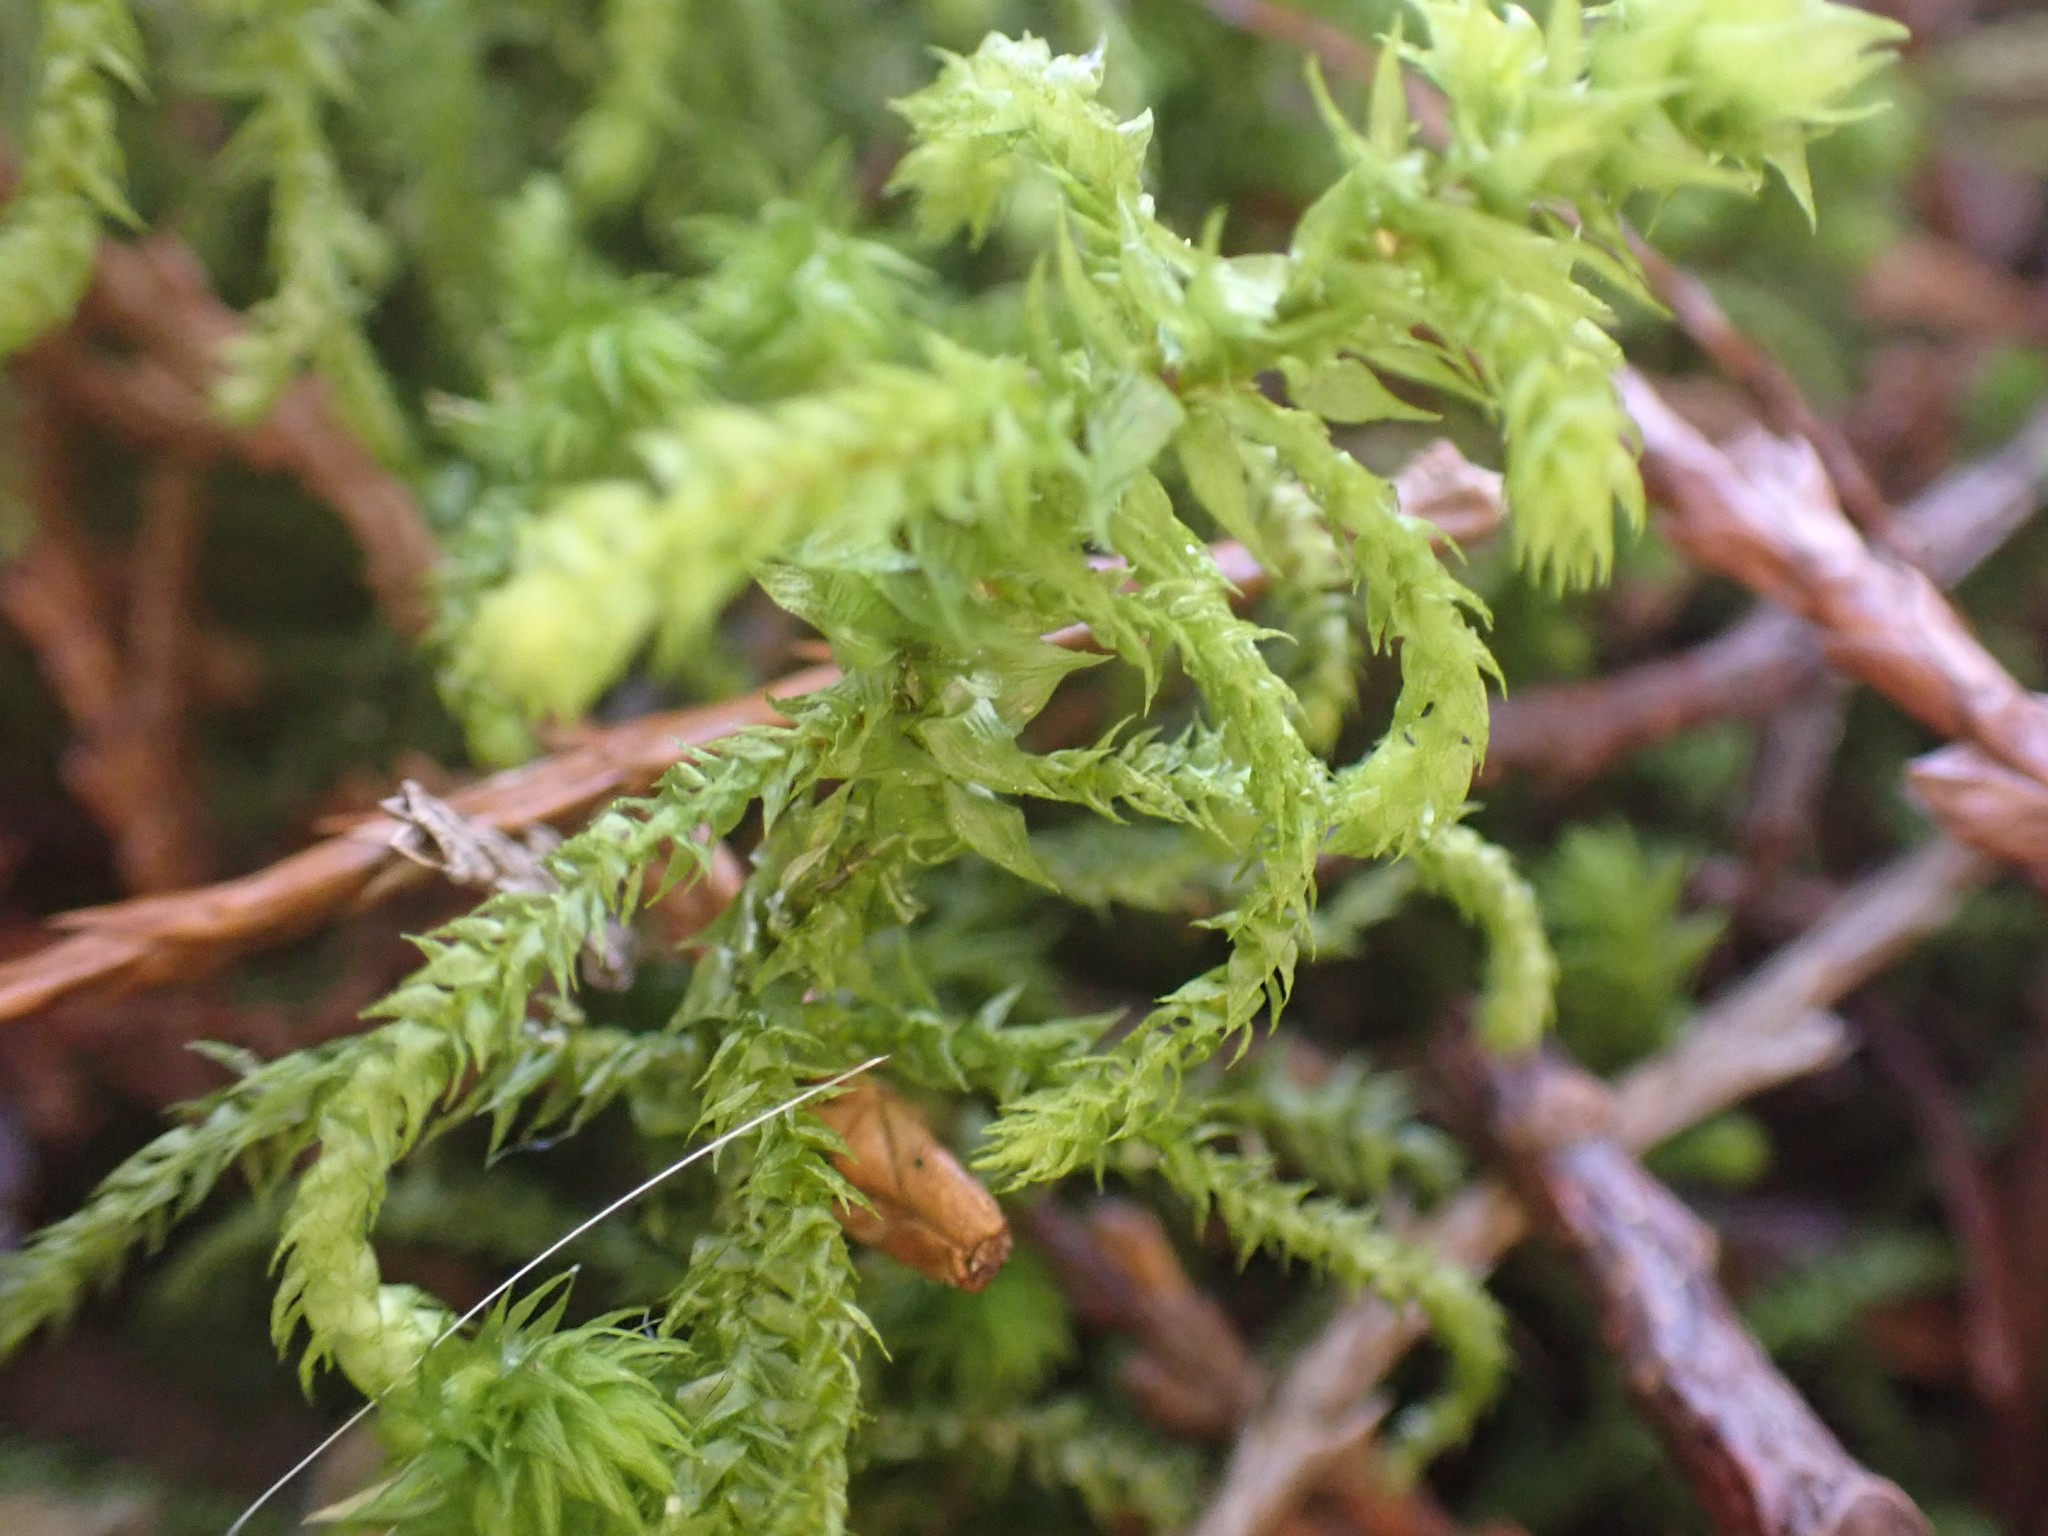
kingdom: Plantae
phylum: Bryophyta
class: Bryopsida
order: Hypnales
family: Hylocomiaceae
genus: Hylocomiadelphus
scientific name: Hylocomiadelphus triquetrus
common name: Rough goose neck moss
